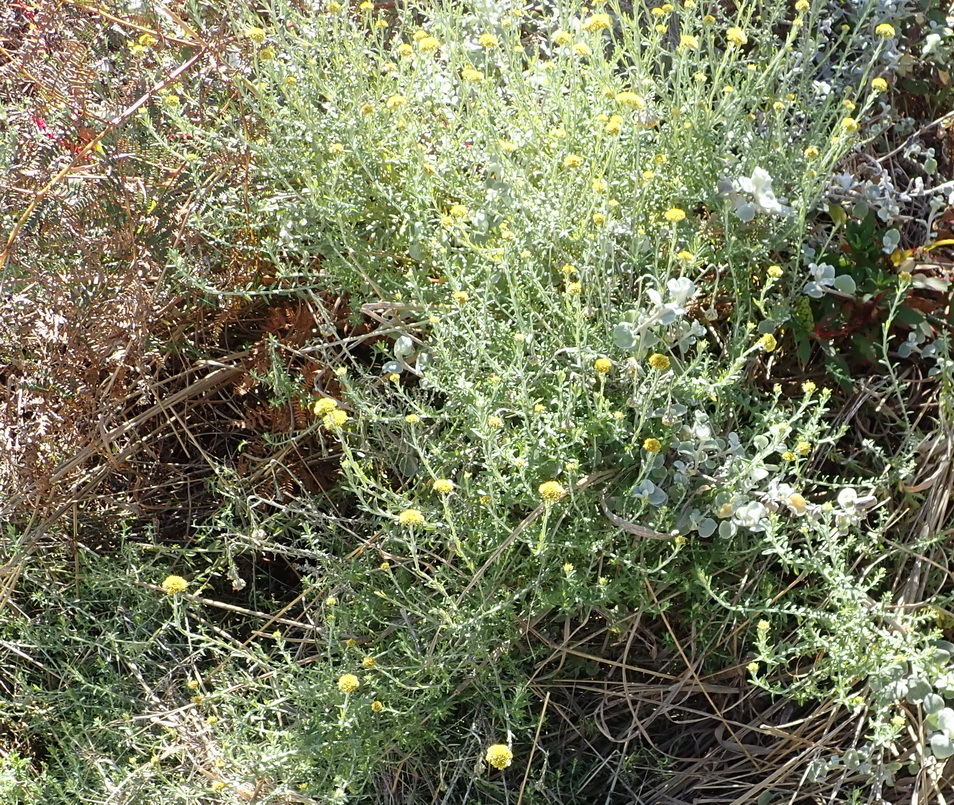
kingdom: Plantae
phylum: Tracheophyta
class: Magnoliopsida
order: Asterales
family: Asteraceae
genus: Helichrysum
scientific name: Helichrysum cymosum
